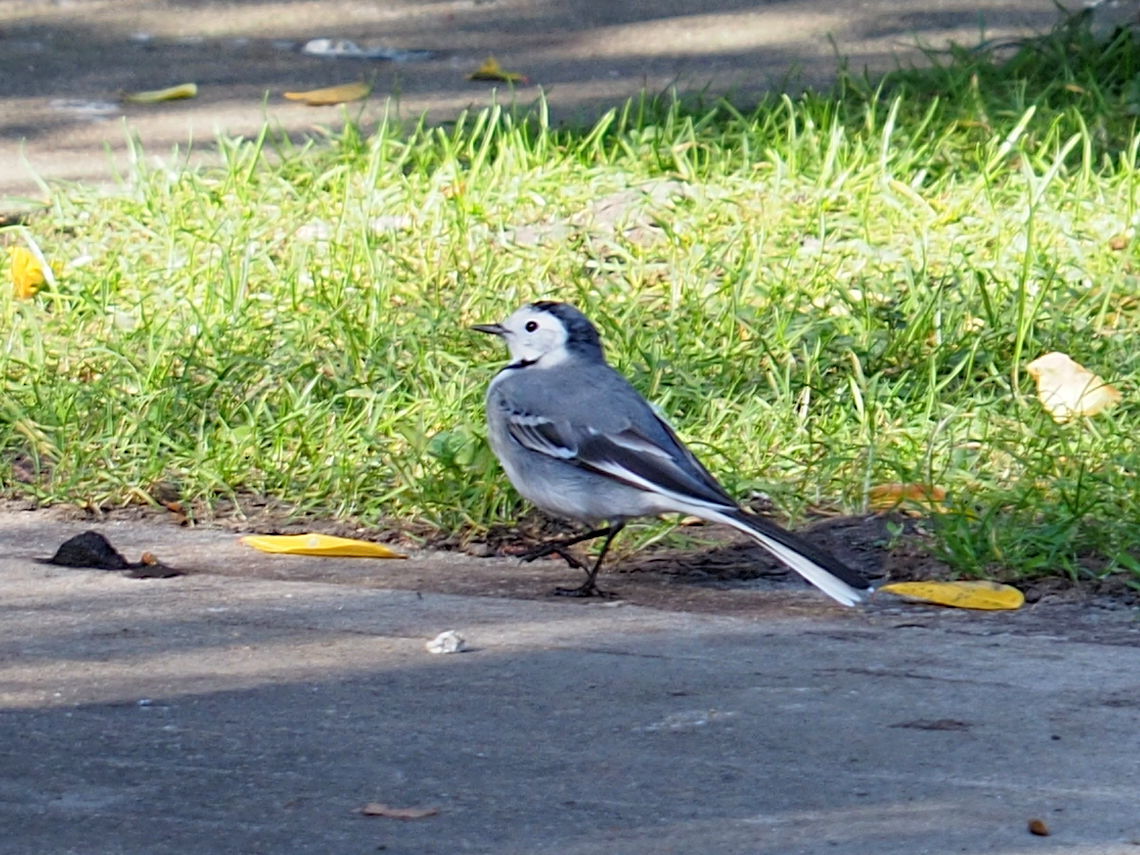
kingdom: Animalia
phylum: Chordata
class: Aves
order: Passeriformes
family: Motacillidae
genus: Motacilla
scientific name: Motacilla alba
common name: White wagtail
